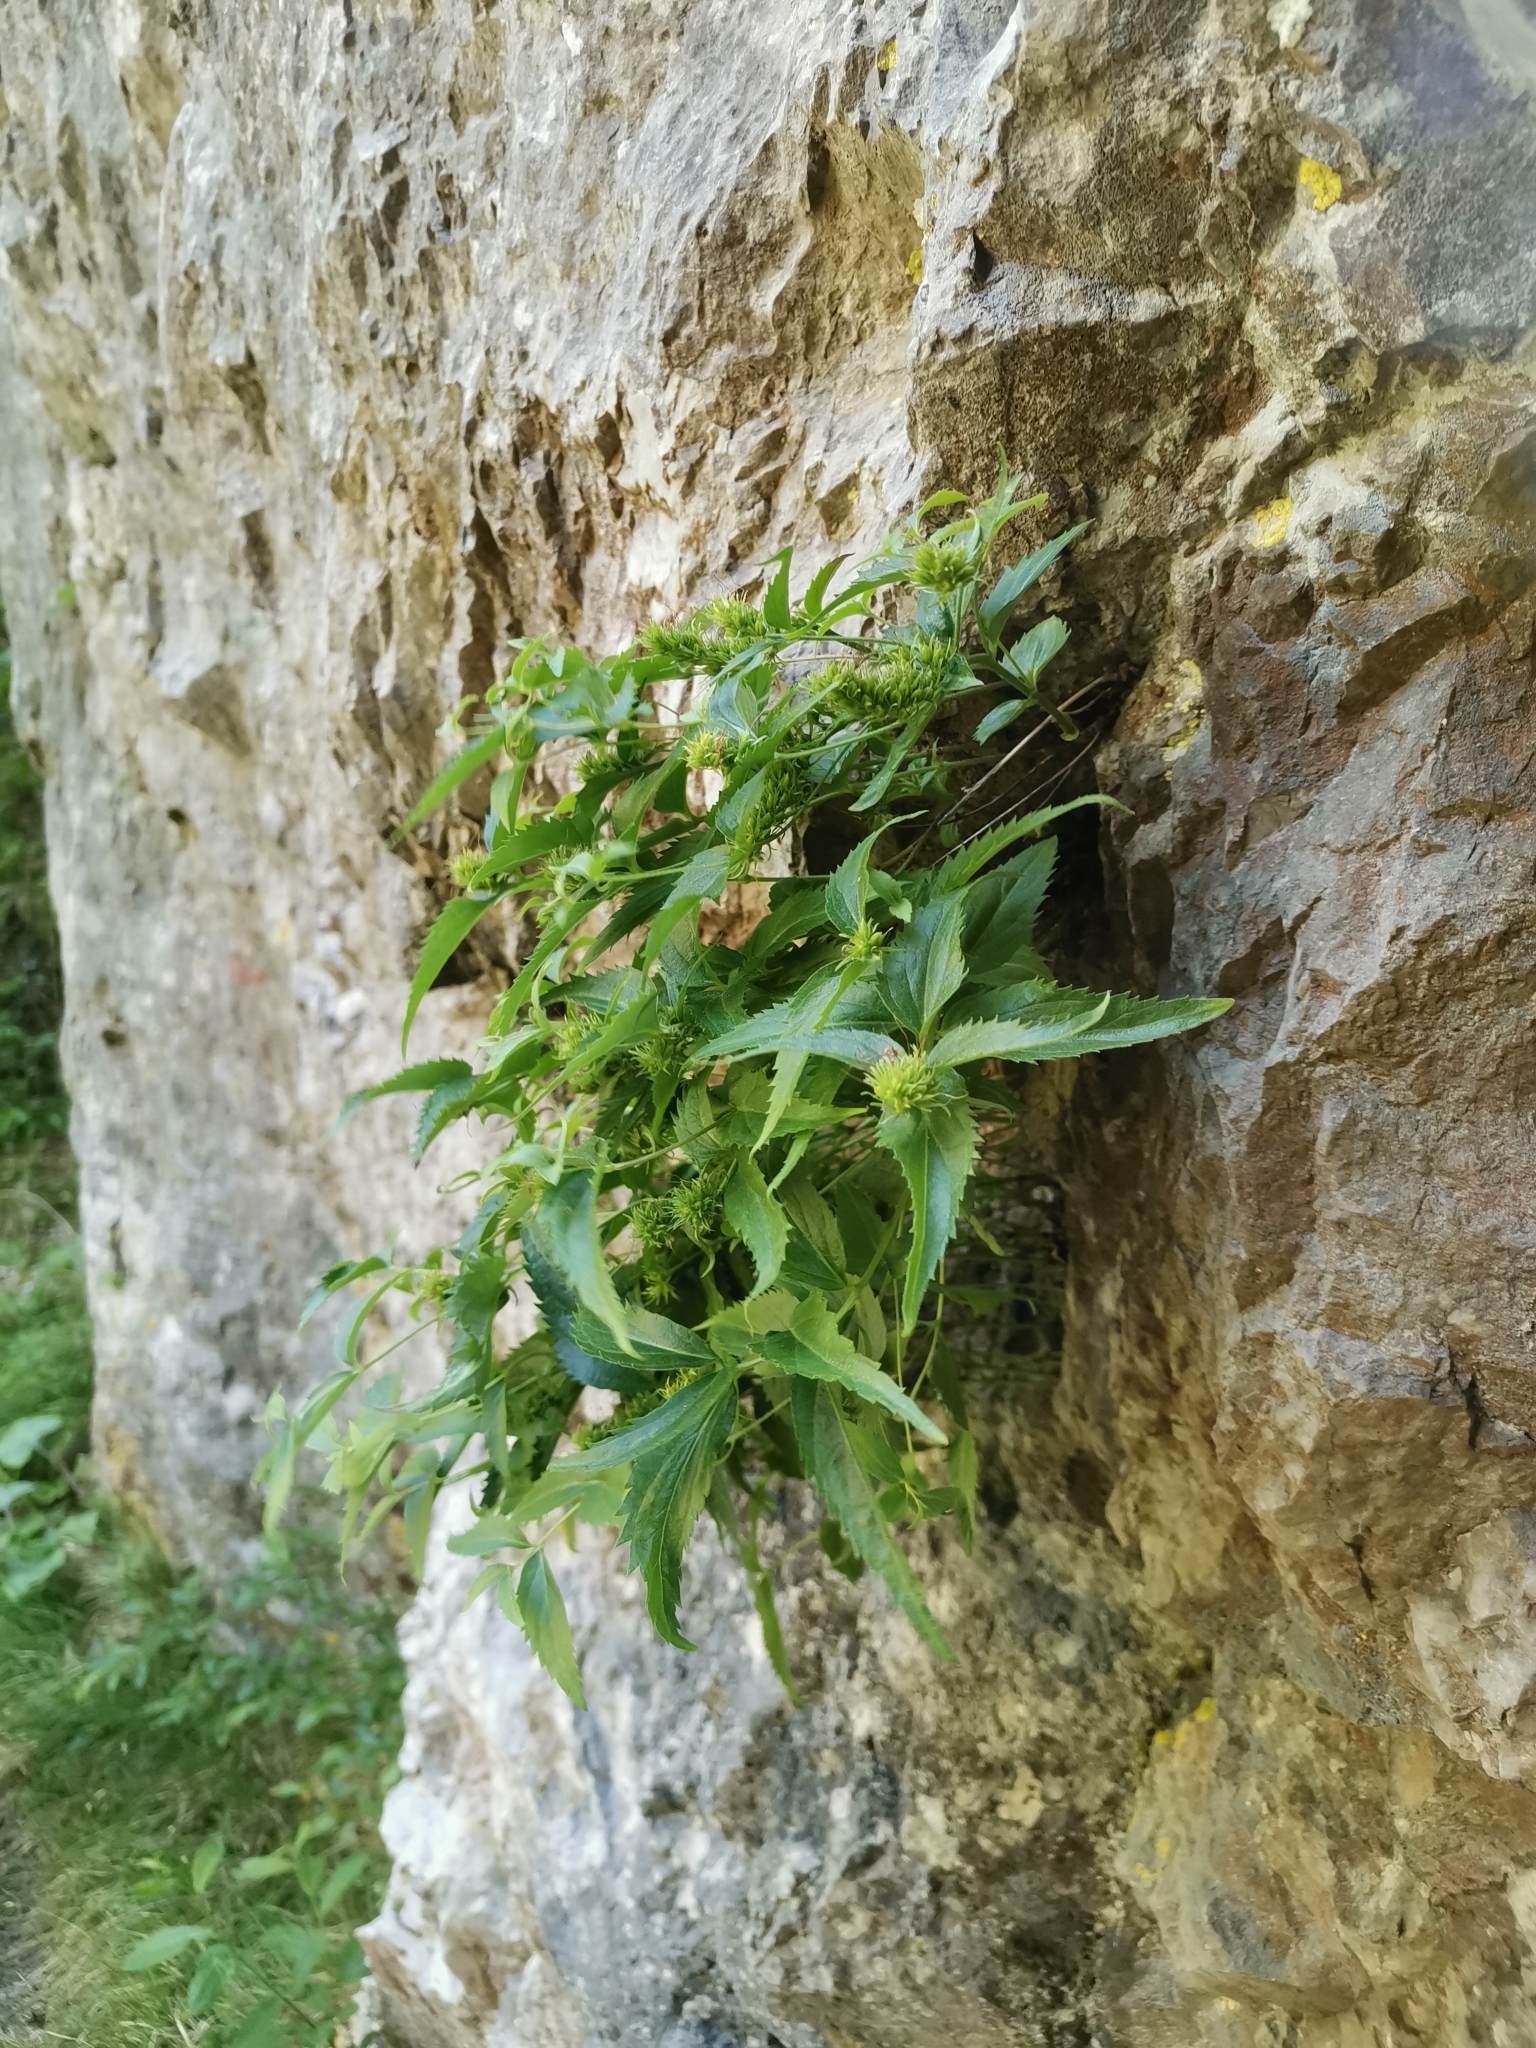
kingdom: Plantae
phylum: Tracheophyta
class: Magnoliopsida
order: Lamiales
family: Plantaginaceae
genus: Paederota
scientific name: Paederota lutea
